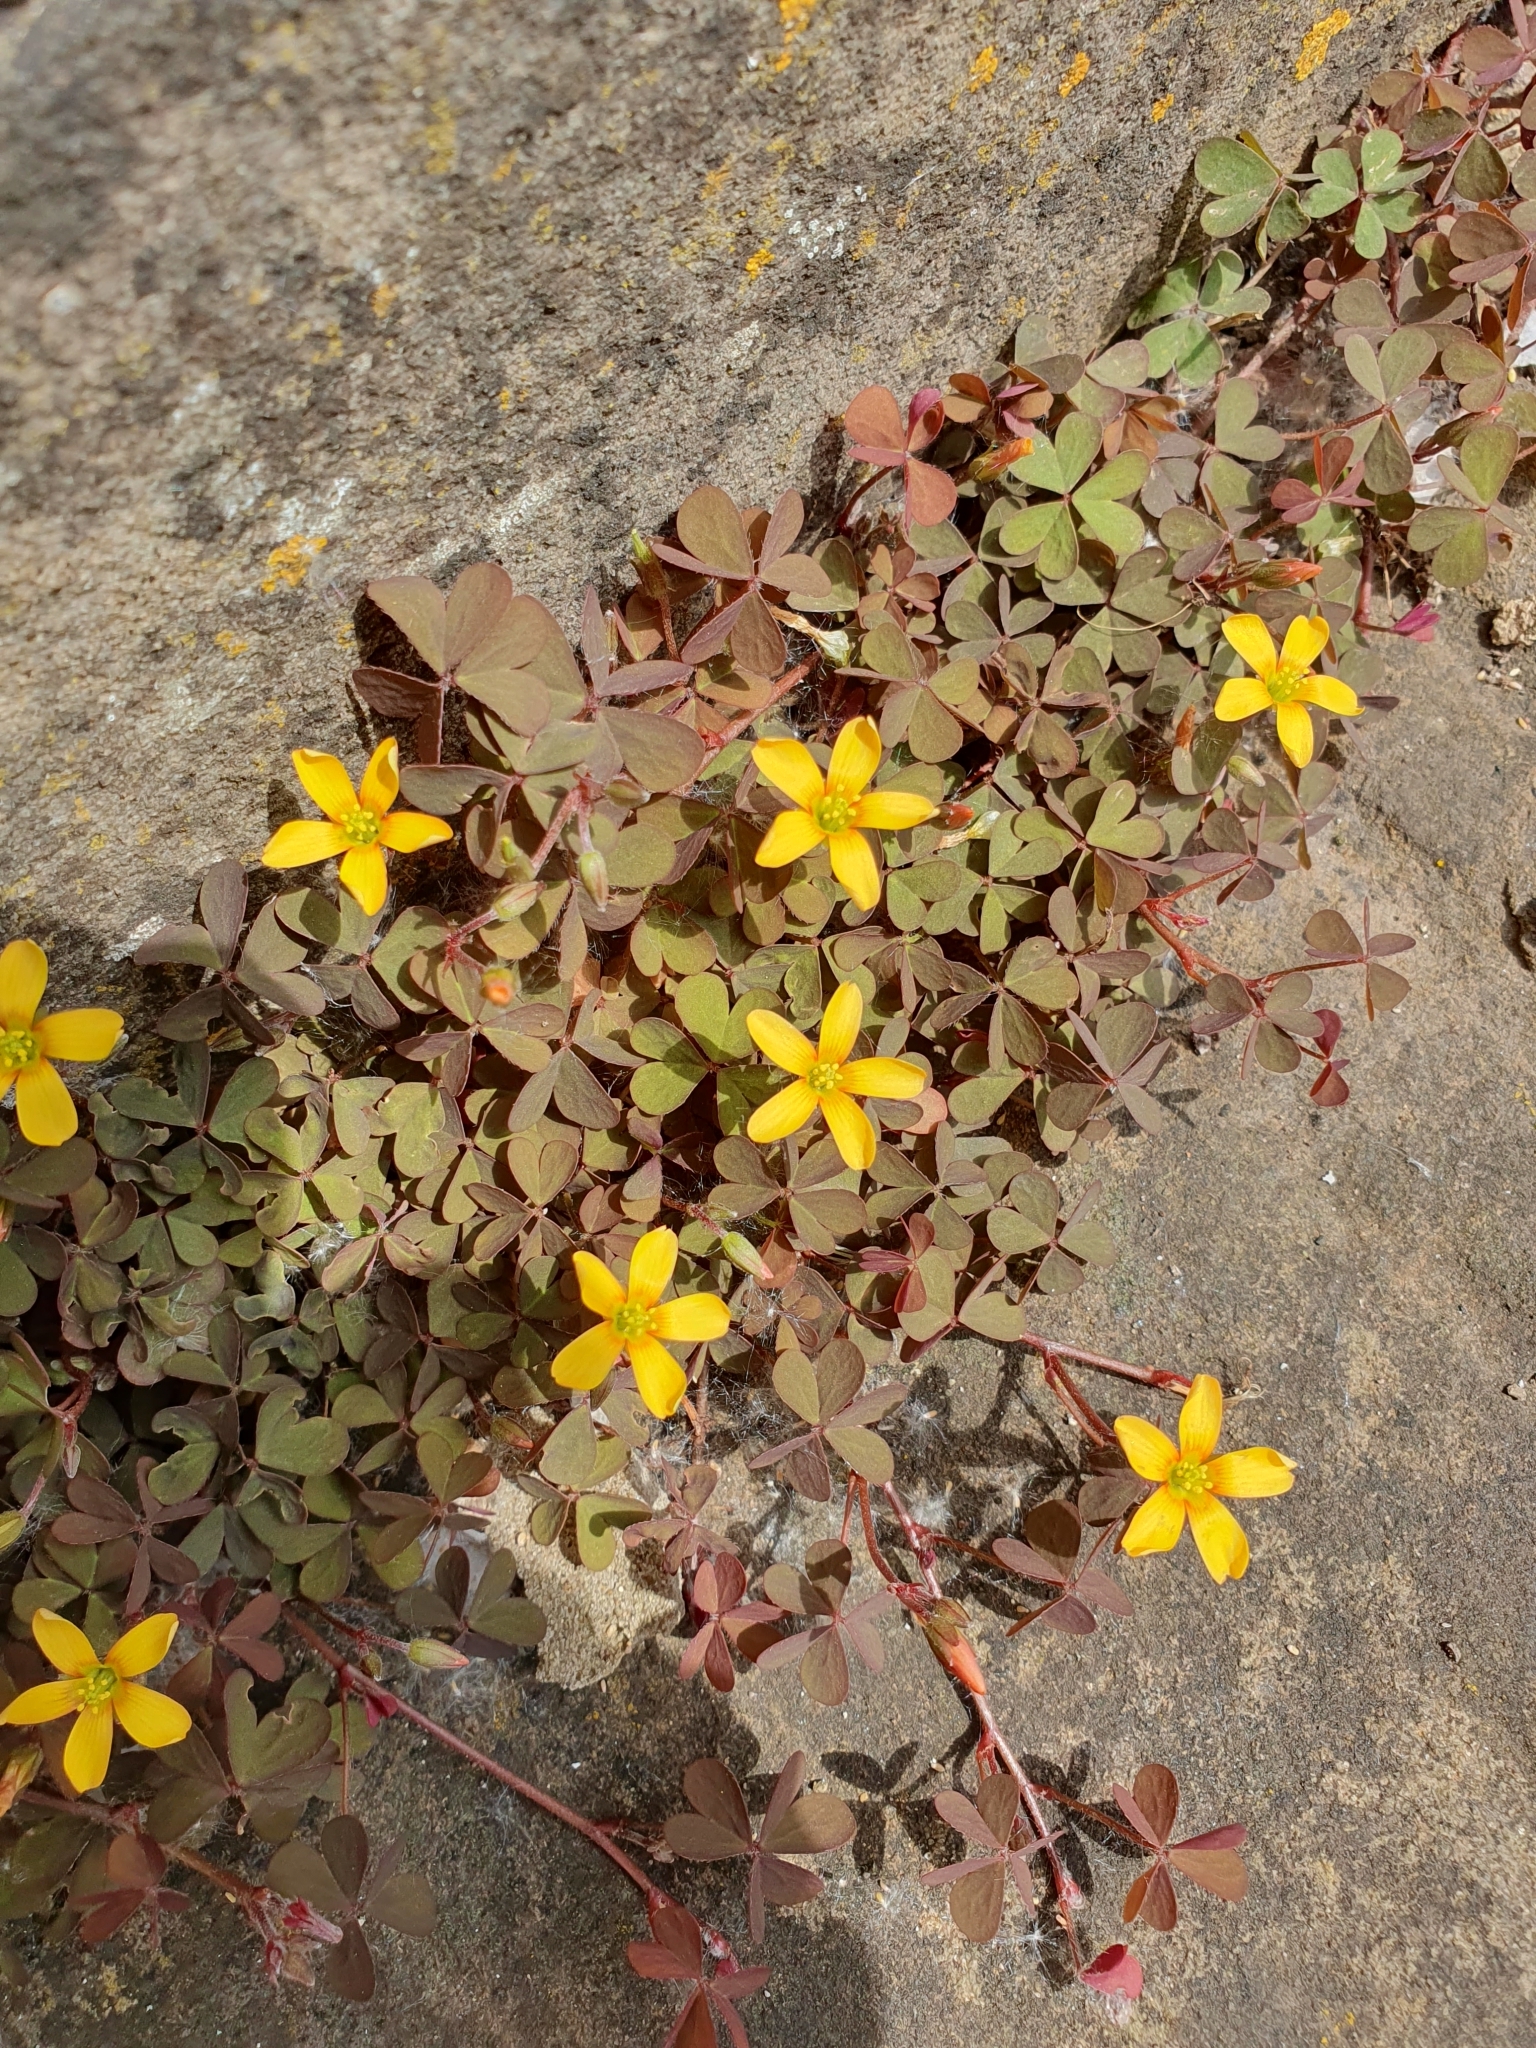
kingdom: Plantae
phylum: Tracheophyta
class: Magnoliopsida
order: Oxalidales
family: Oxalidaceae
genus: Oxalis
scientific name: Oxalis corniculata
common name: Procumbent yellow-sorrel
